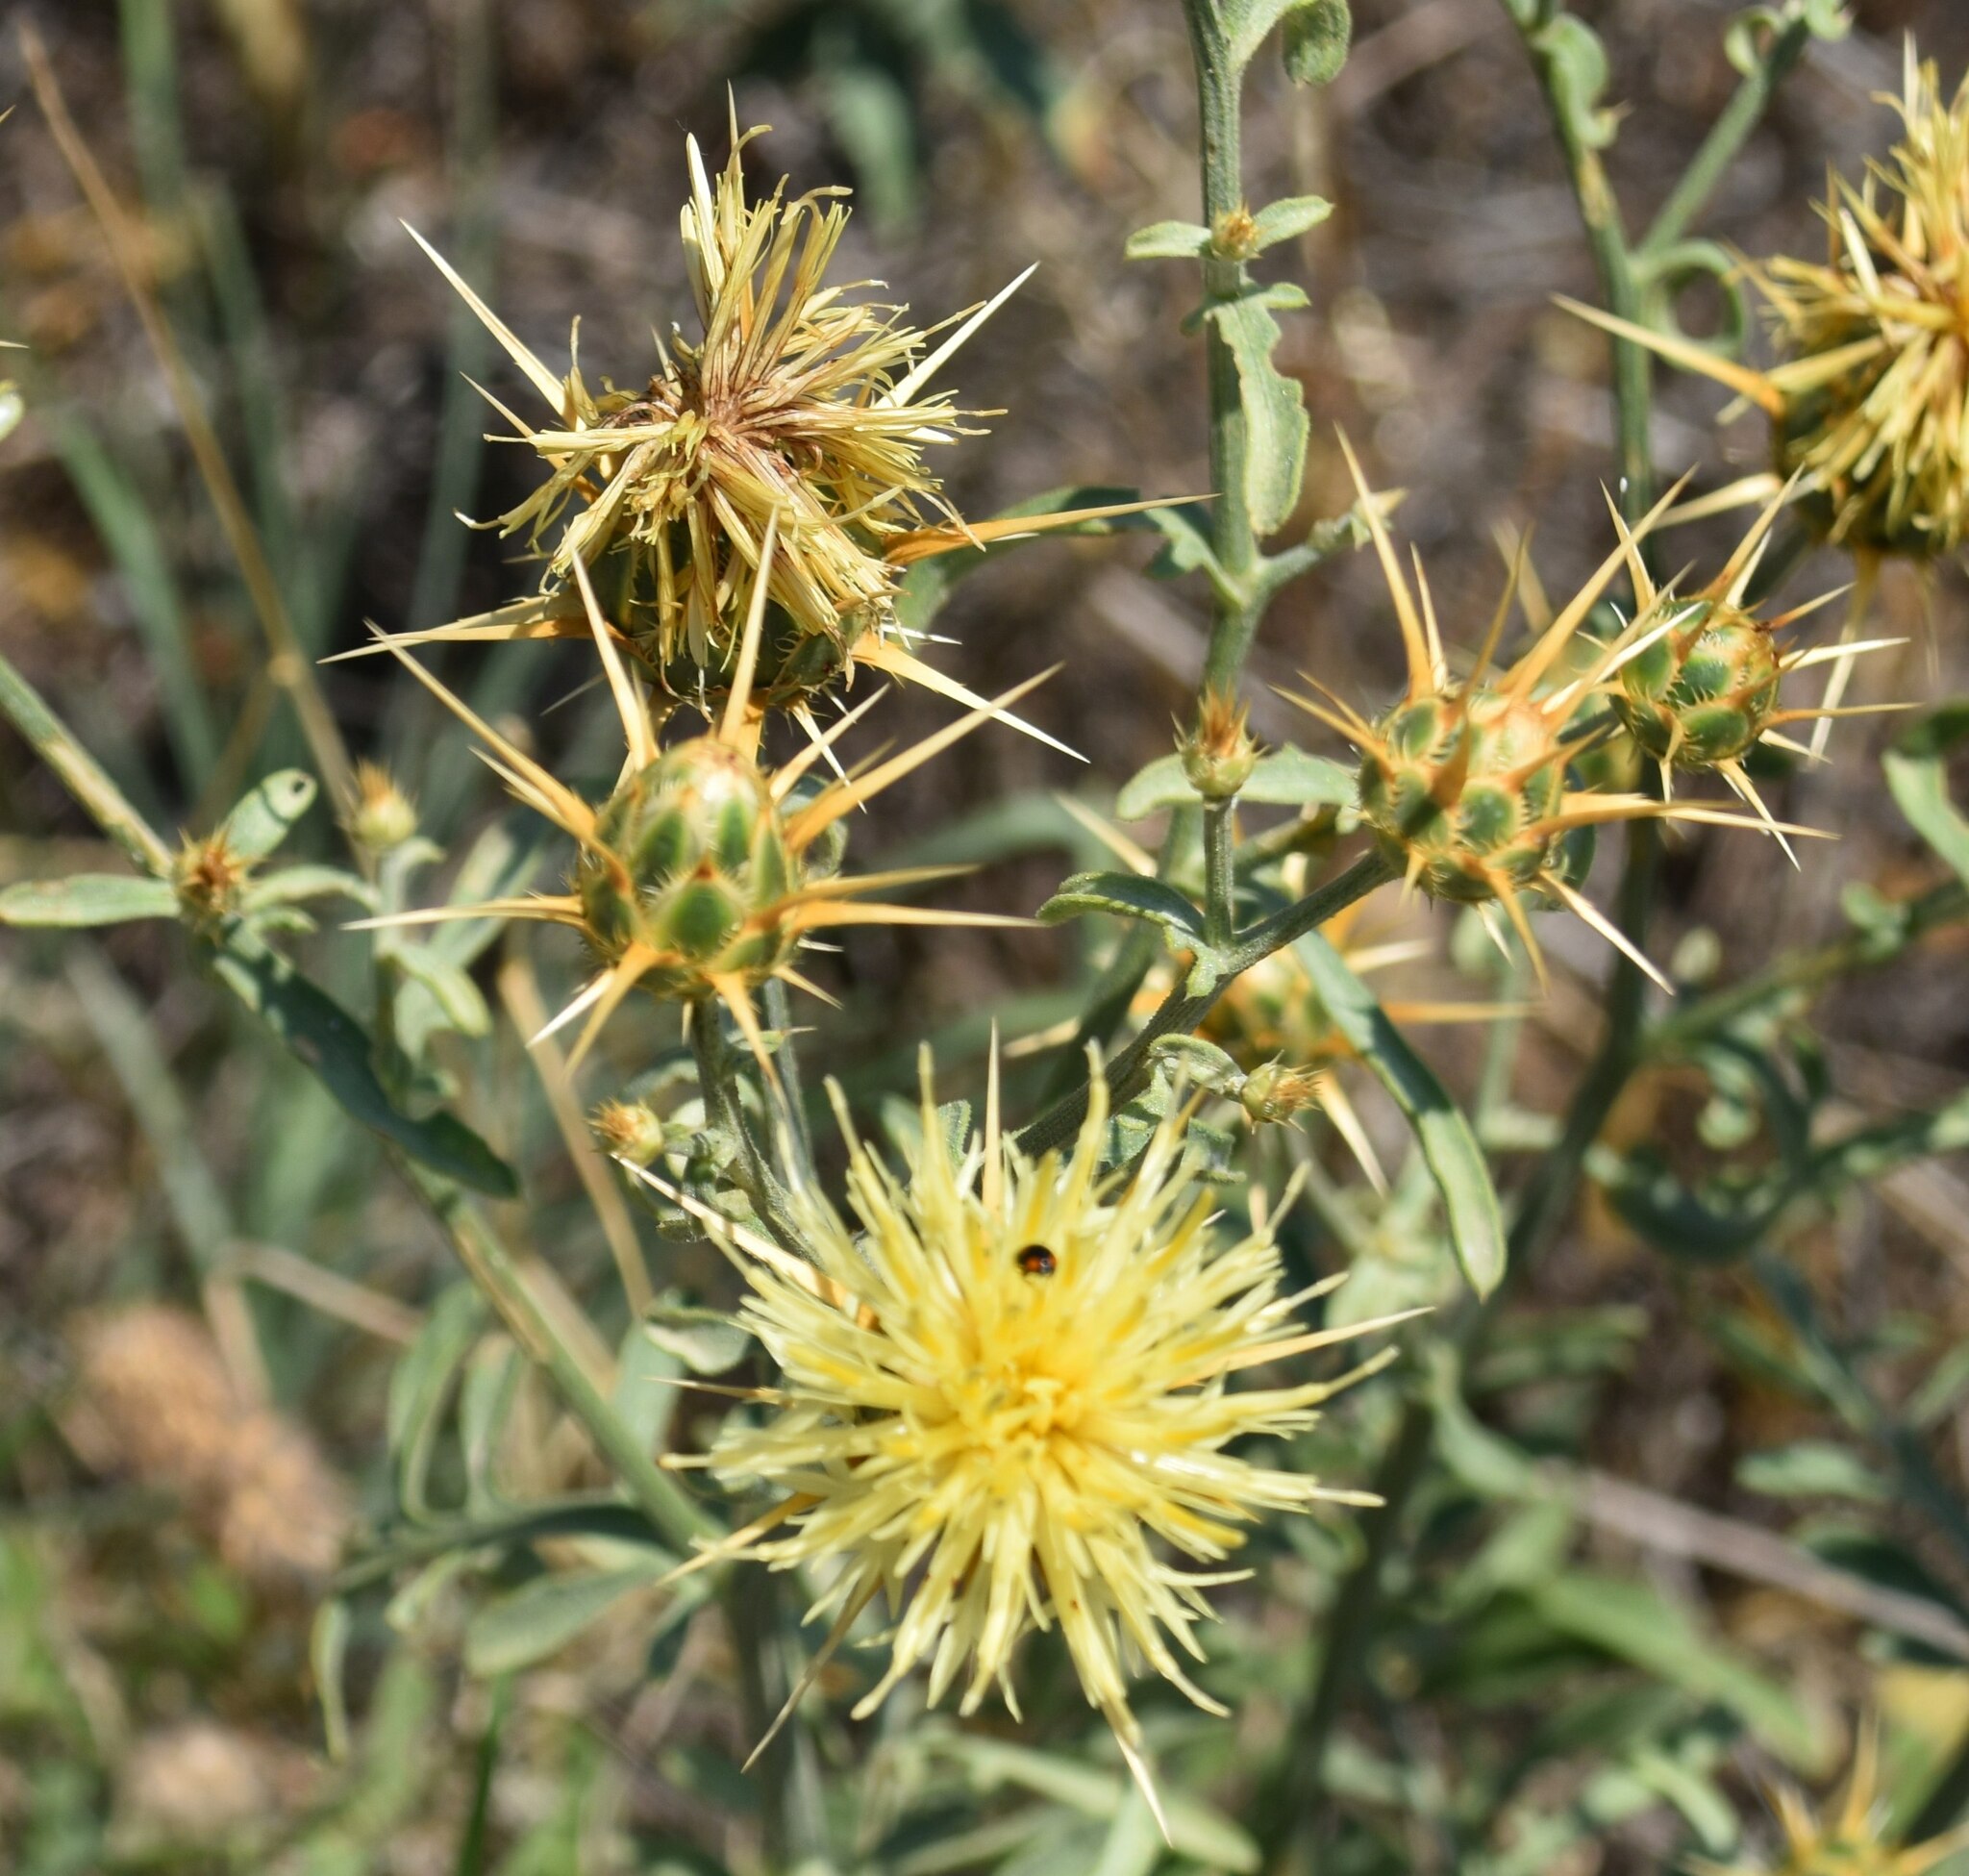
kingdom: Plantae
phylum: Tracheophyta
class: Magnoliopsida
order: Asterales
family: Asteraceae
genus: Centaurea
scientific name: Centaurea salonitana
